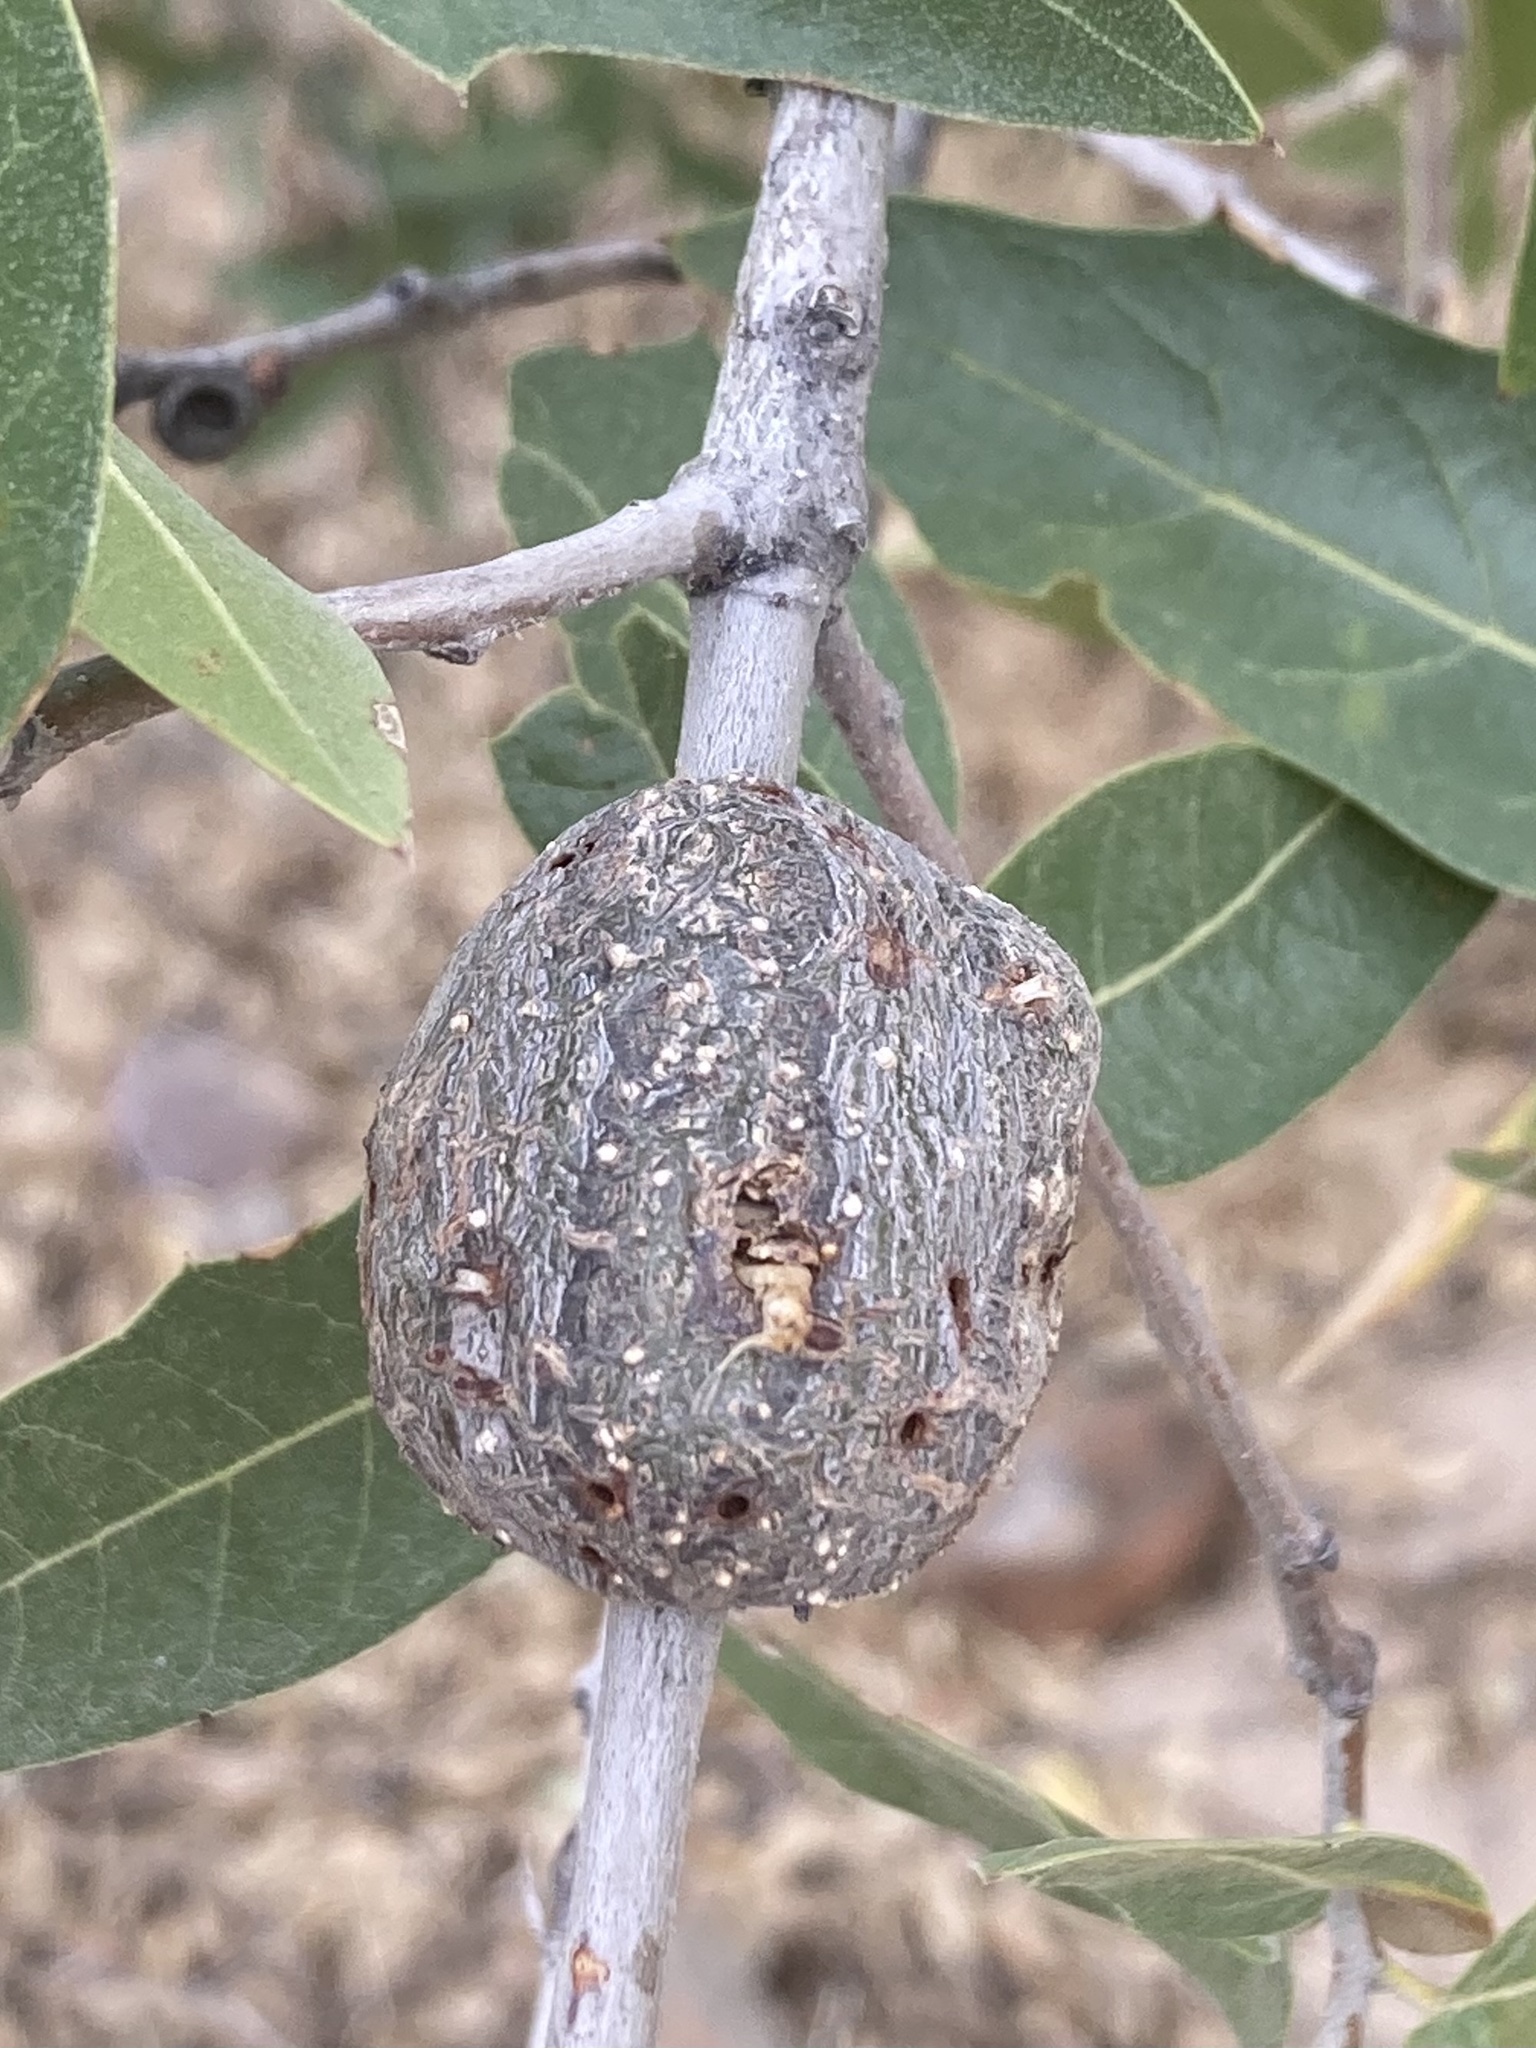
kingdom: Animalia
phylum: Arthropoda
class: Insecta
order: Hymenoptera
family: Cynipidae
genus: Kokkocynips
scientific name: Kokkocynips coxii
